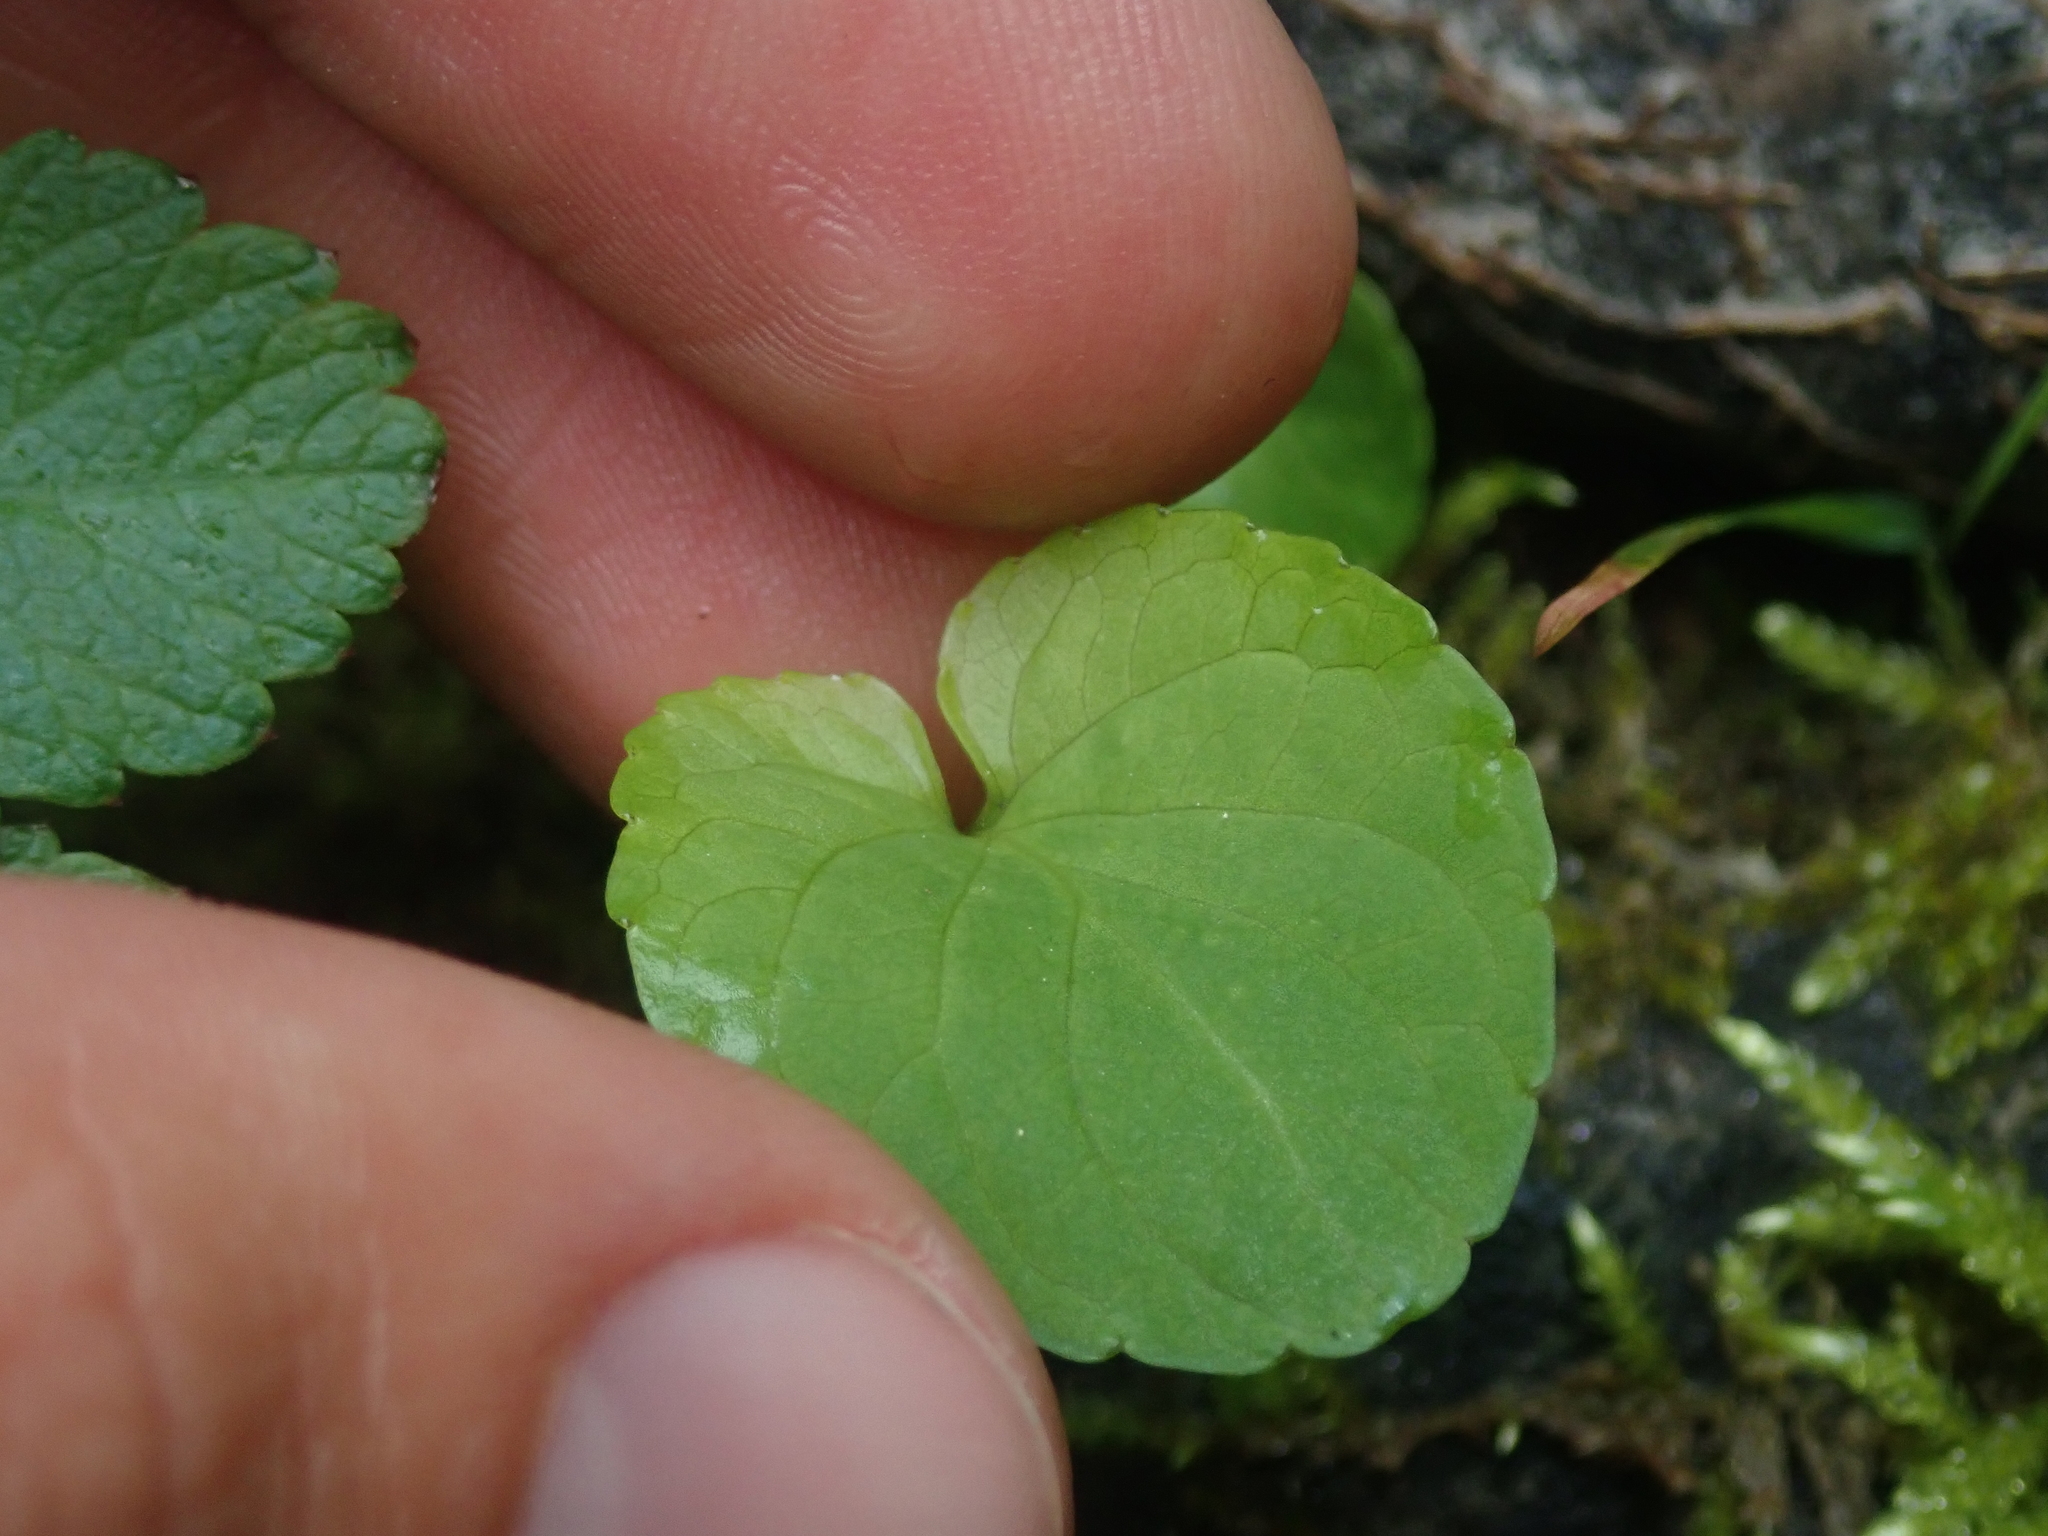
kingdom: Plantae
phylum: Tracheophyta
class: Magnoliopsida
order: Malpighiales
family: Violaceae
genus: Viola
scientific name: Viola palustris
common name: Marsh violet
